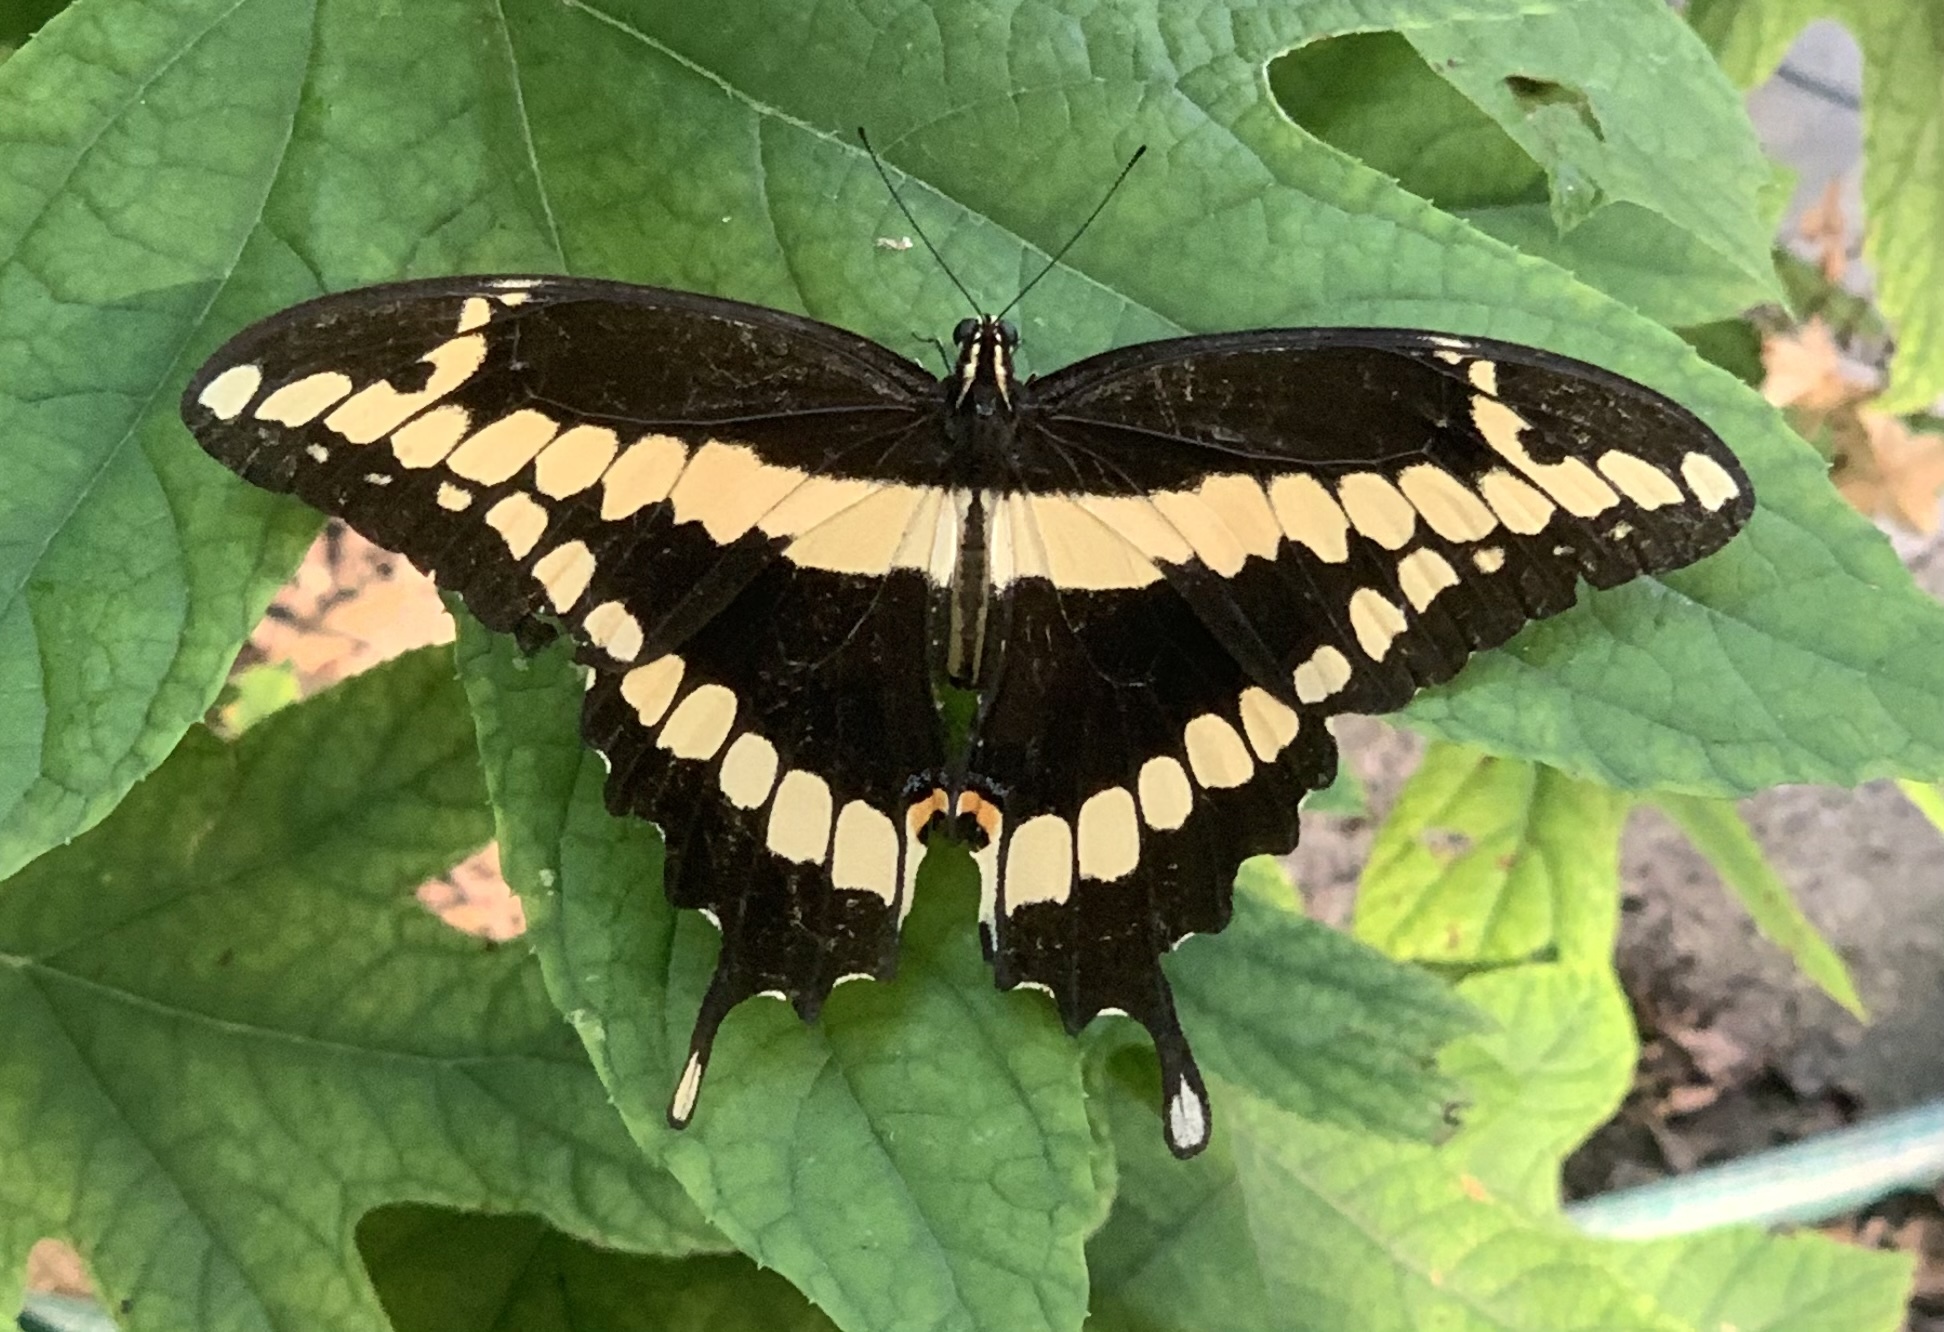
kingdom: Animalia
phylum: Arthropoda
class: Insecta
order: Lepidoptera
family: Papilionidae
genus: Papilio
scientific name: Papilio cresphontes
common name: Giant swallowtail
